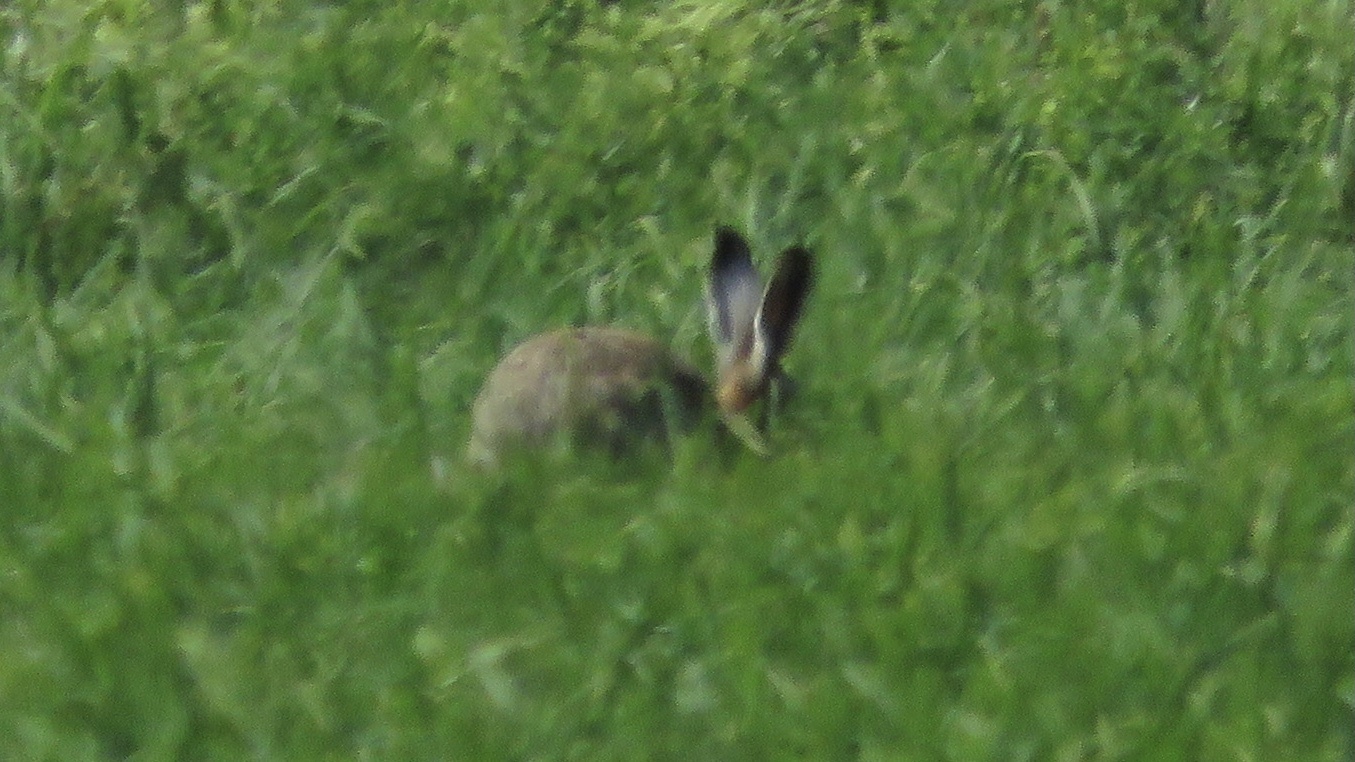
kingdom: Animalia
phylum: Chordata
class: Mammalia
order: Lagomorpha
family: Leporidae
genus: Lepus
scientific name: Lepus europaeus
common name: European hare
